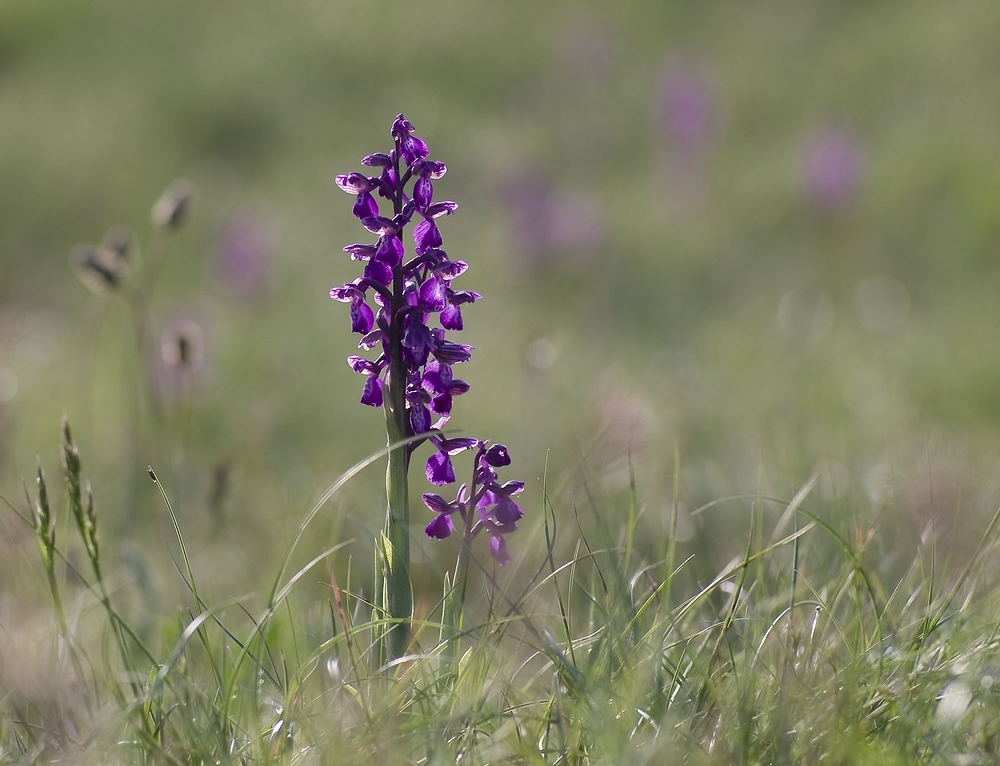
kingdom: Plantae
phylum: Tracheophyta
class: Liliopsida
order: Asparagales
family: Orchidaceae
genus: Anacamptis
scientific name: Anacamptis morio
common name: Green-winged orchid
